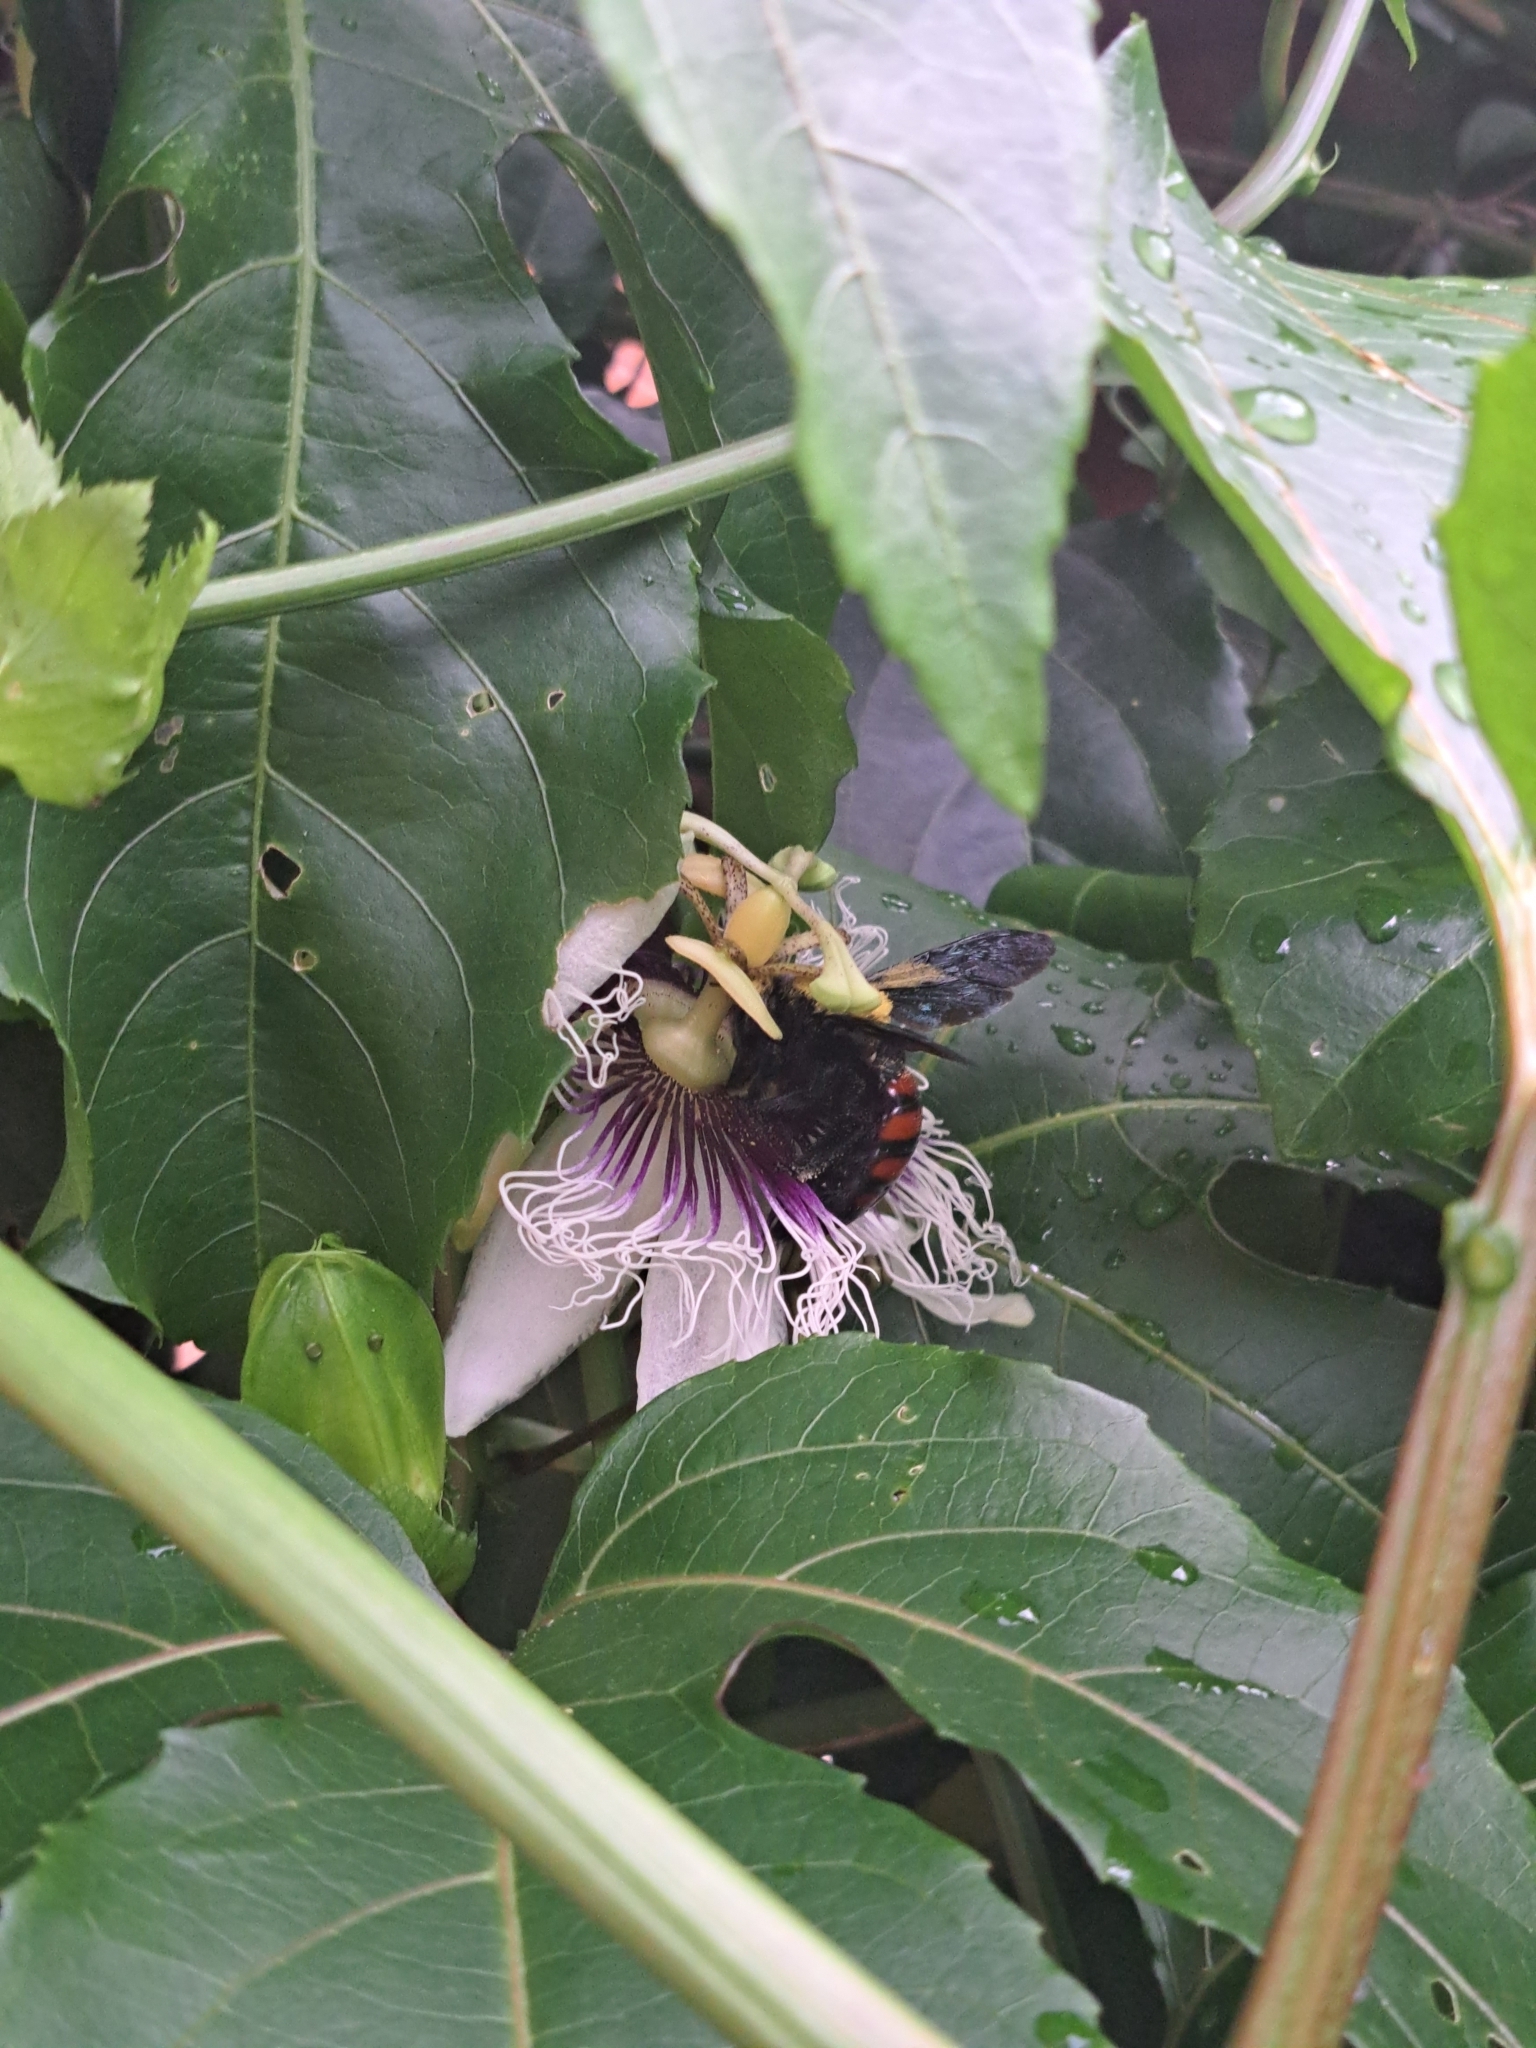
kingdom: Animalia
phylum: Arthropoda
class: Insecta
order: Hymenoptera
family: Apidae
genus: Xylocopa
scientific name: Xylocopa frontalis
